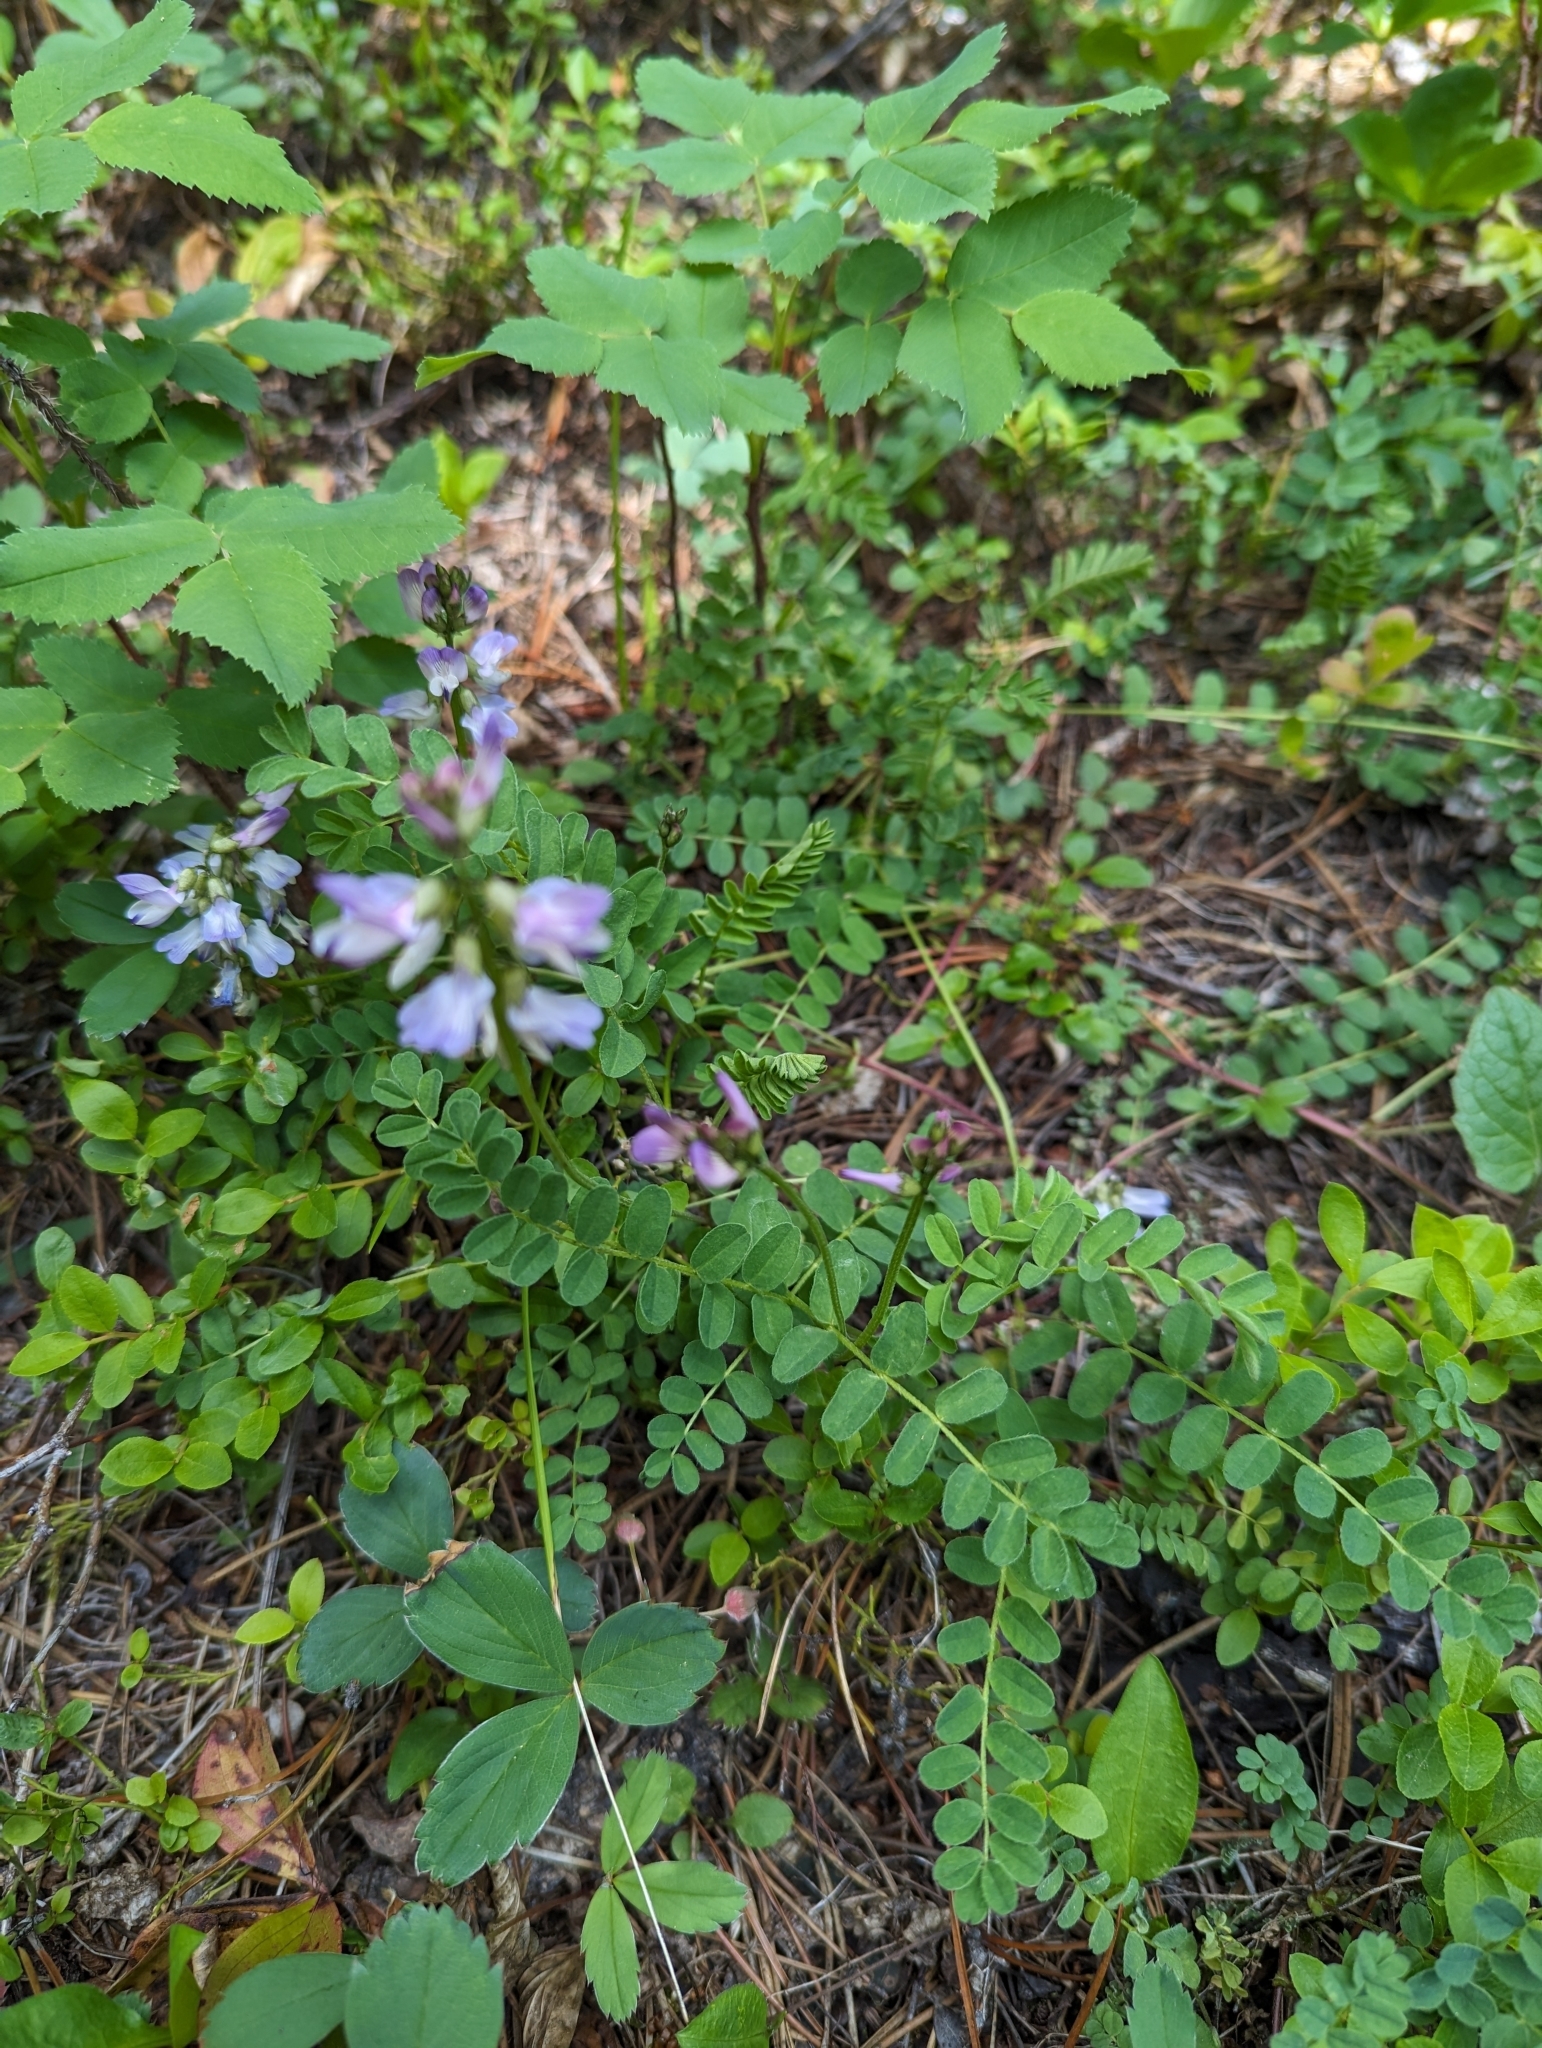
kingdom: Plantae
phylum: Tracheophyta
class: Magnoliopsida
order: Fabales
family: Fabaceae
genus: Astragalus
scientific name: Astragalus alpinus
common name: Alpine milk-vetch
